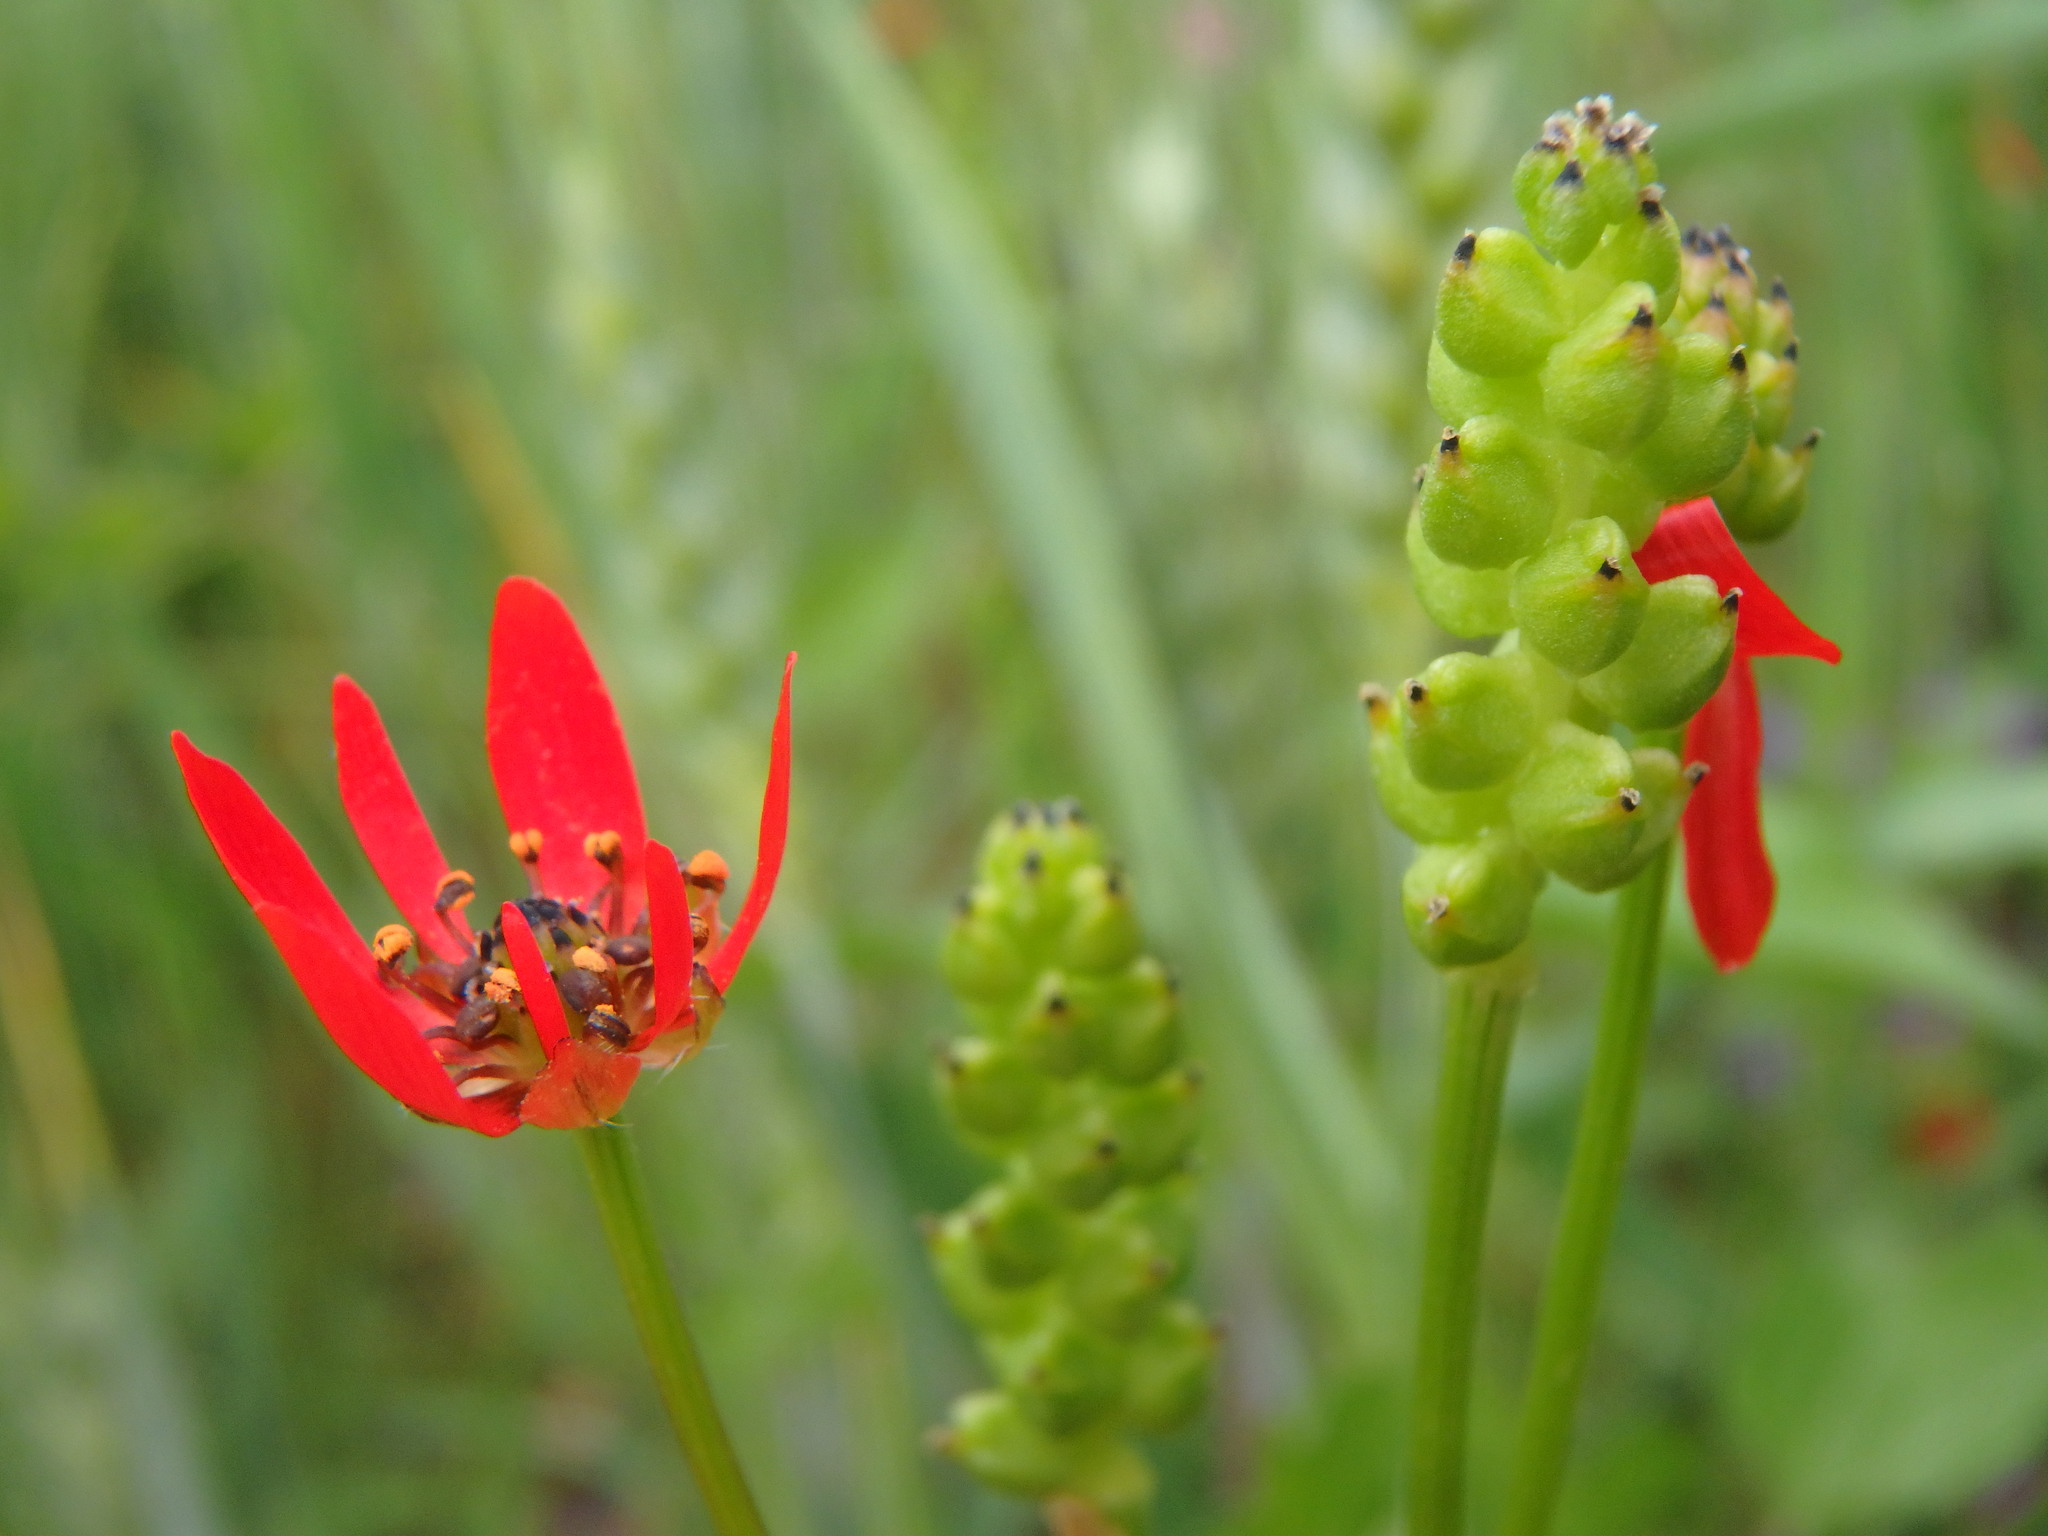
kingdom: Plantae
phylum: Tracheophyta
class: Magnoliopsida
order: Ranunculales
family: Ranunculaceae
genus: Adonis
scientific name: Adonis flammea
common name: Large pheasant's-eye
